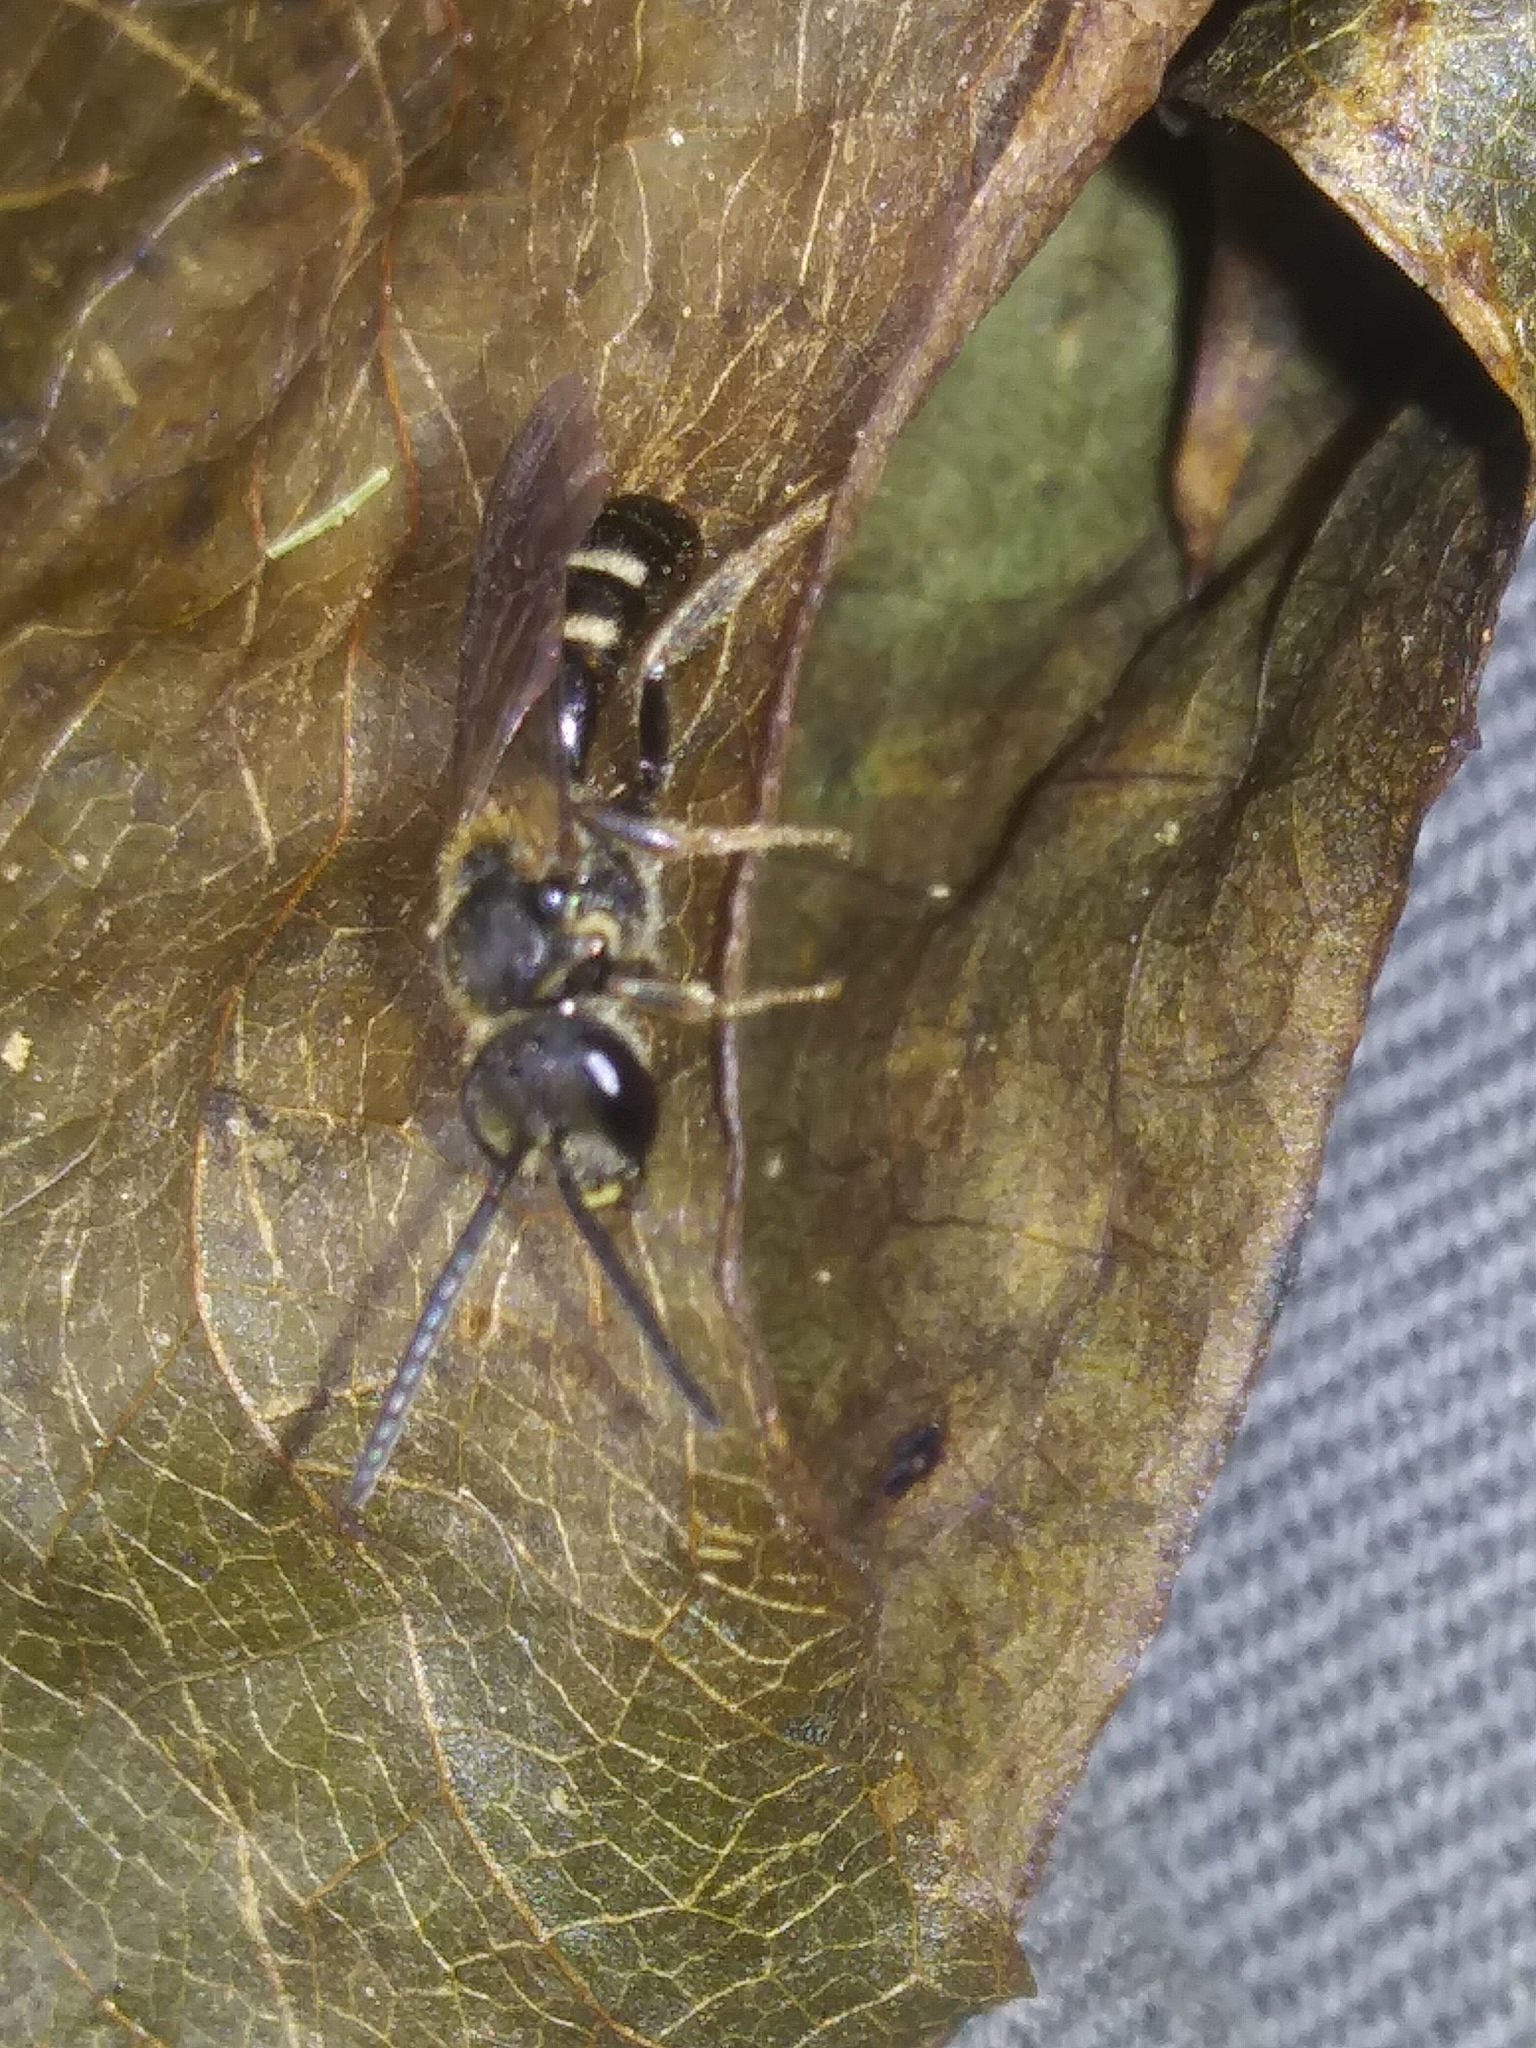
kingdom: Animalia
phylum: Arthropoda
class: Insecta
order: Hymenoptera
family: Halictidae
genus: Lasioglossum
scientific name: Lasioglossum fuscipenne
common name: Brown-winged sweat bee
